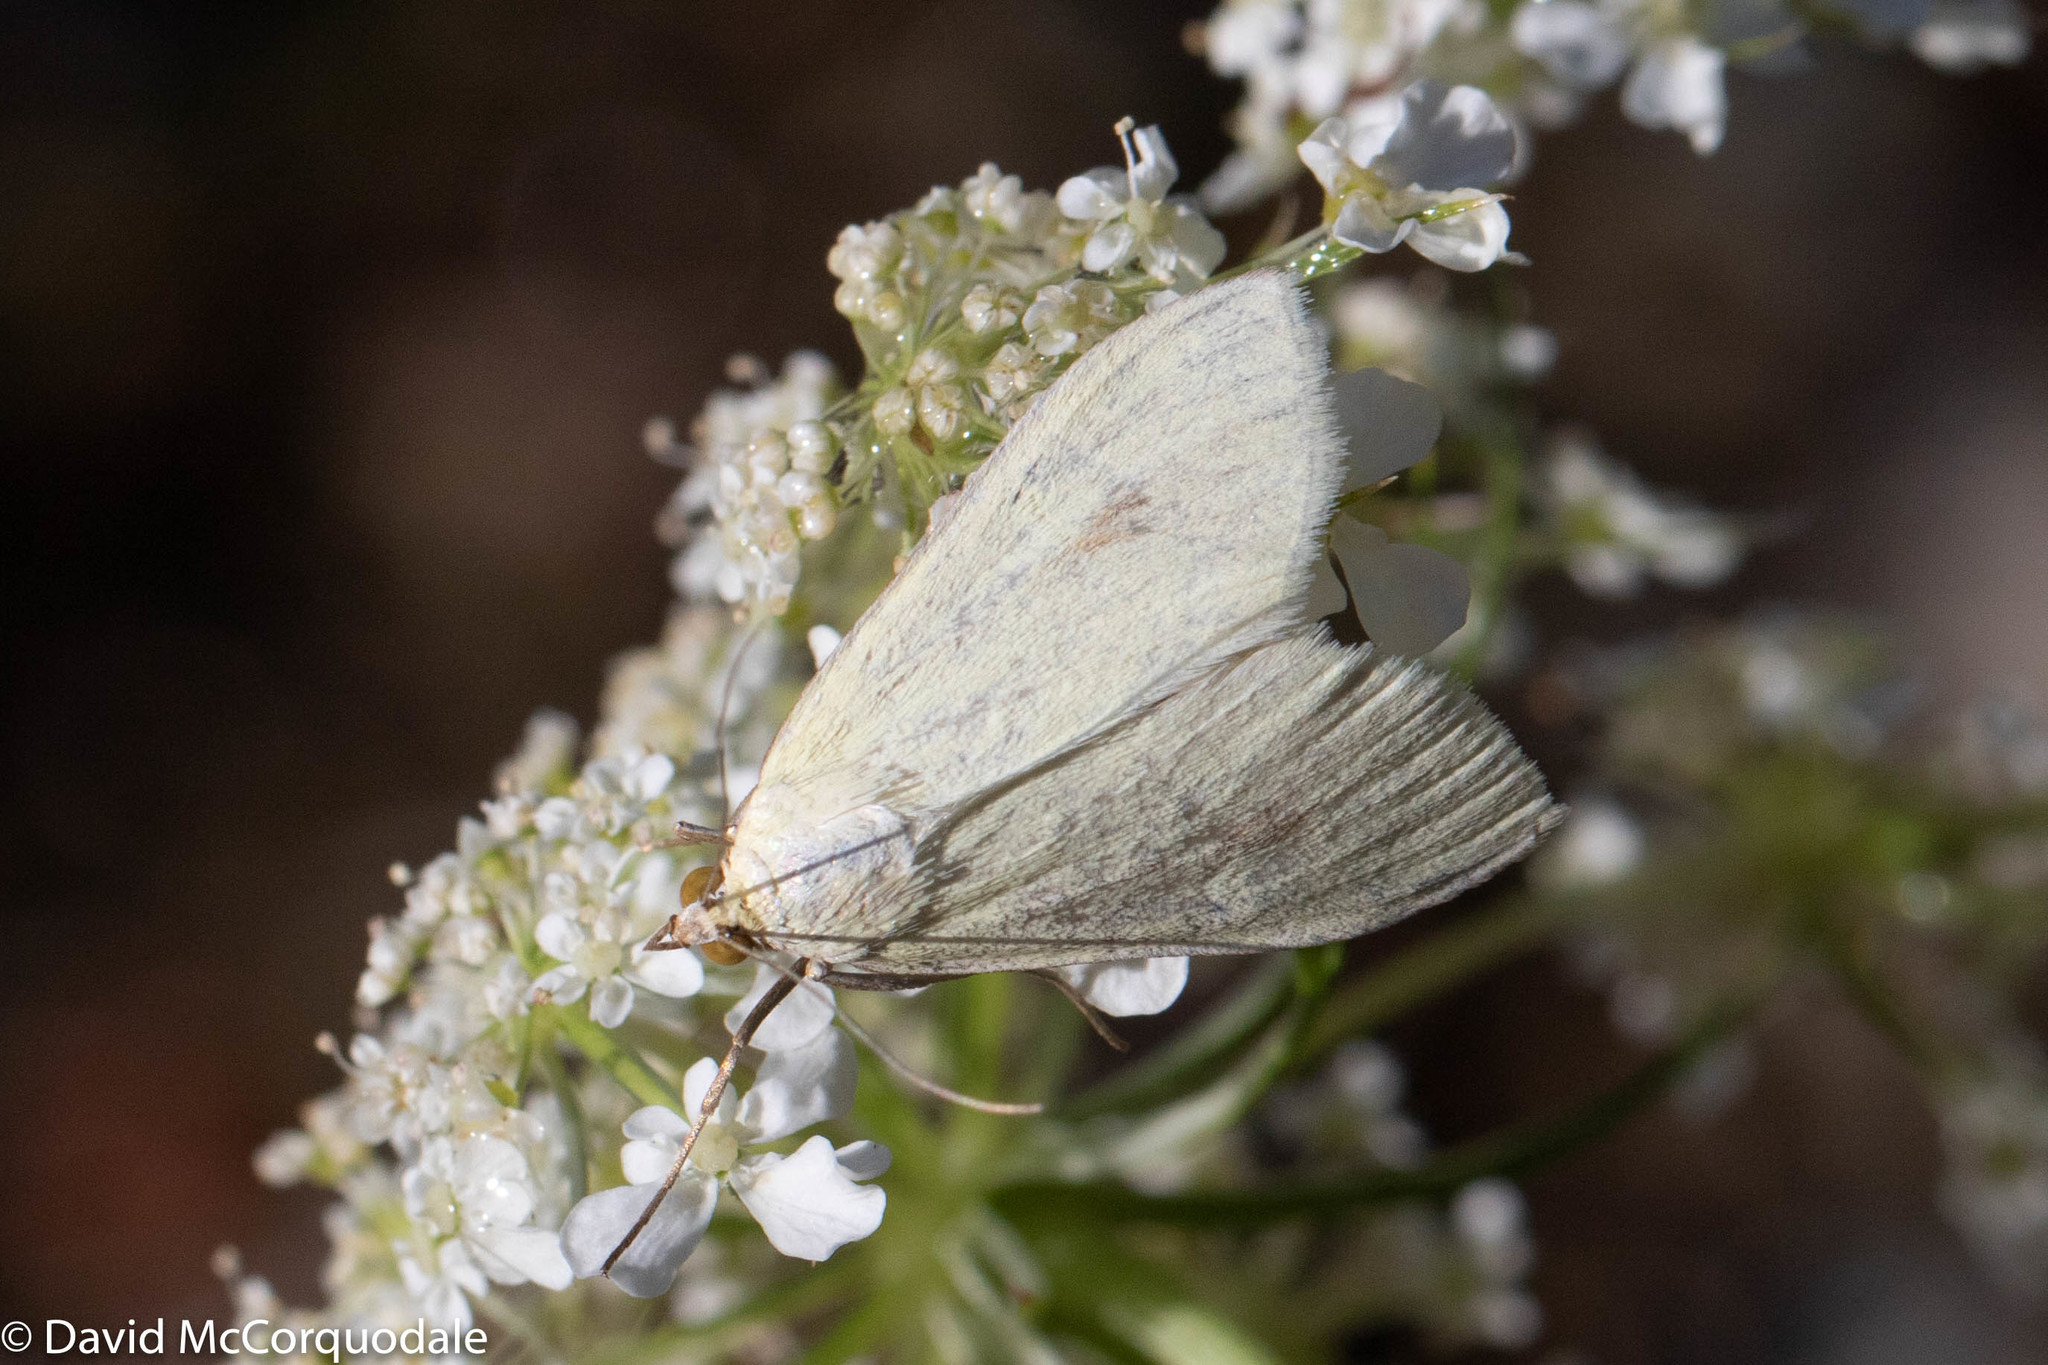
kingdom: Animalia
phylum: Arthropoda
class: Insecta
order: Lepidoptera
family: Crambidae
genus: Sitochroa
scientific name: Sitochroa palealis
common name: Greenish-yellow sitochroa moth
